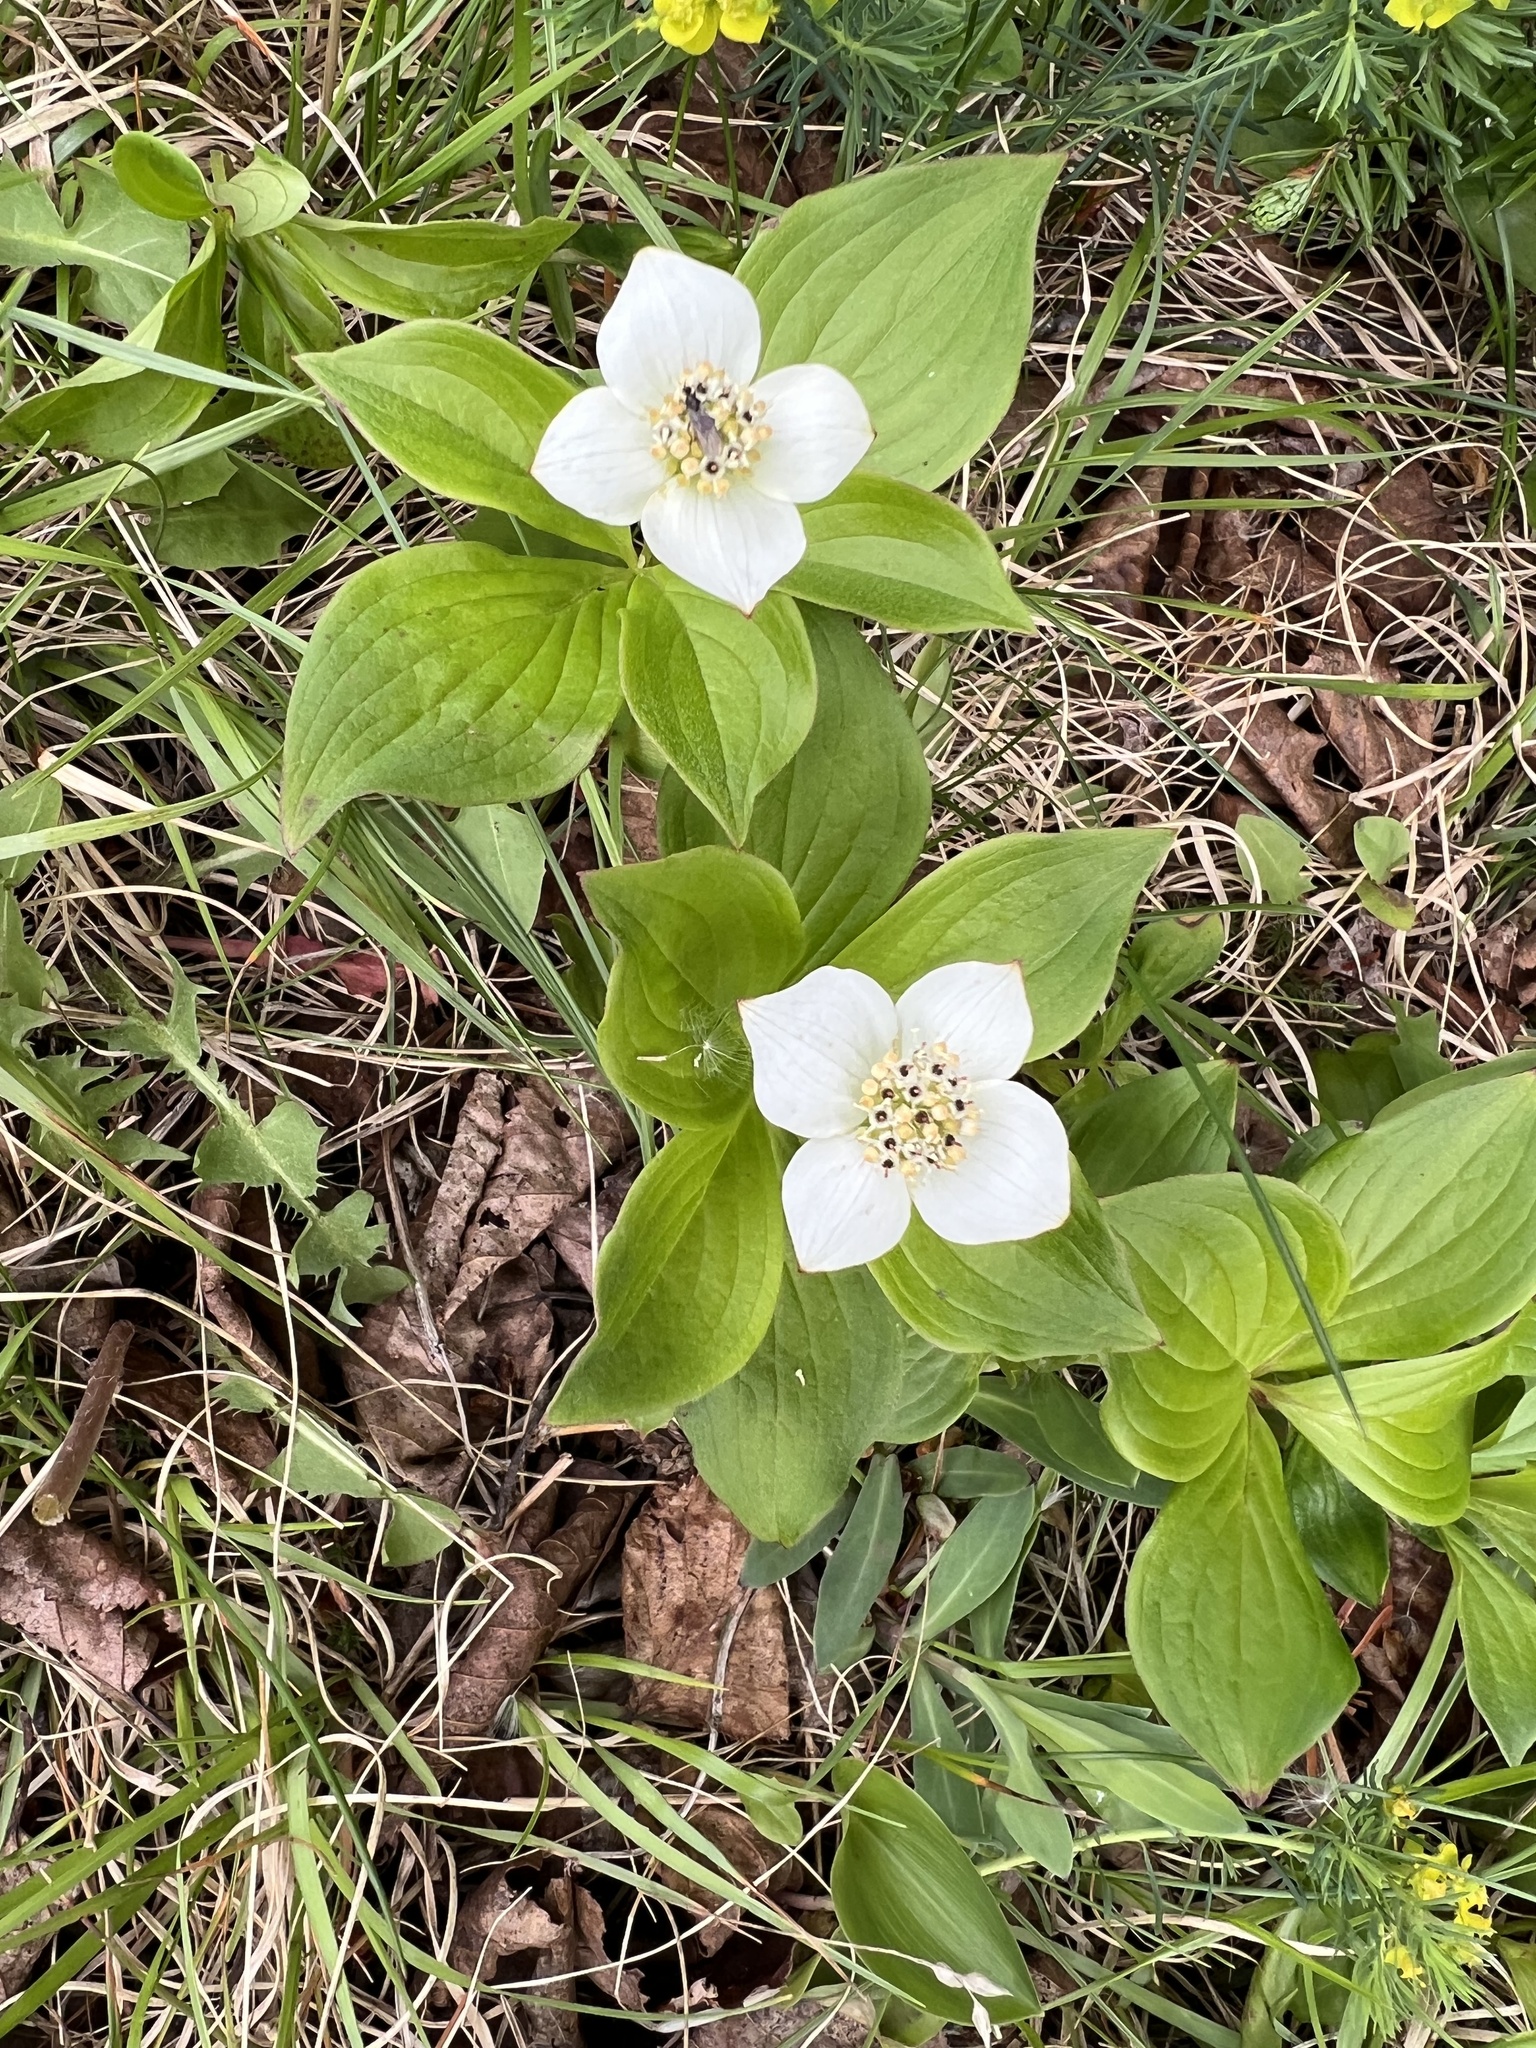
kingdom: Plantae
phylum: Tracheophyta
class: Magnoliopsida
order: Cornales
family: Cornaceae
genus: Cornus
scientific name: Cornus canadensis
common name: Creeping dogwood
